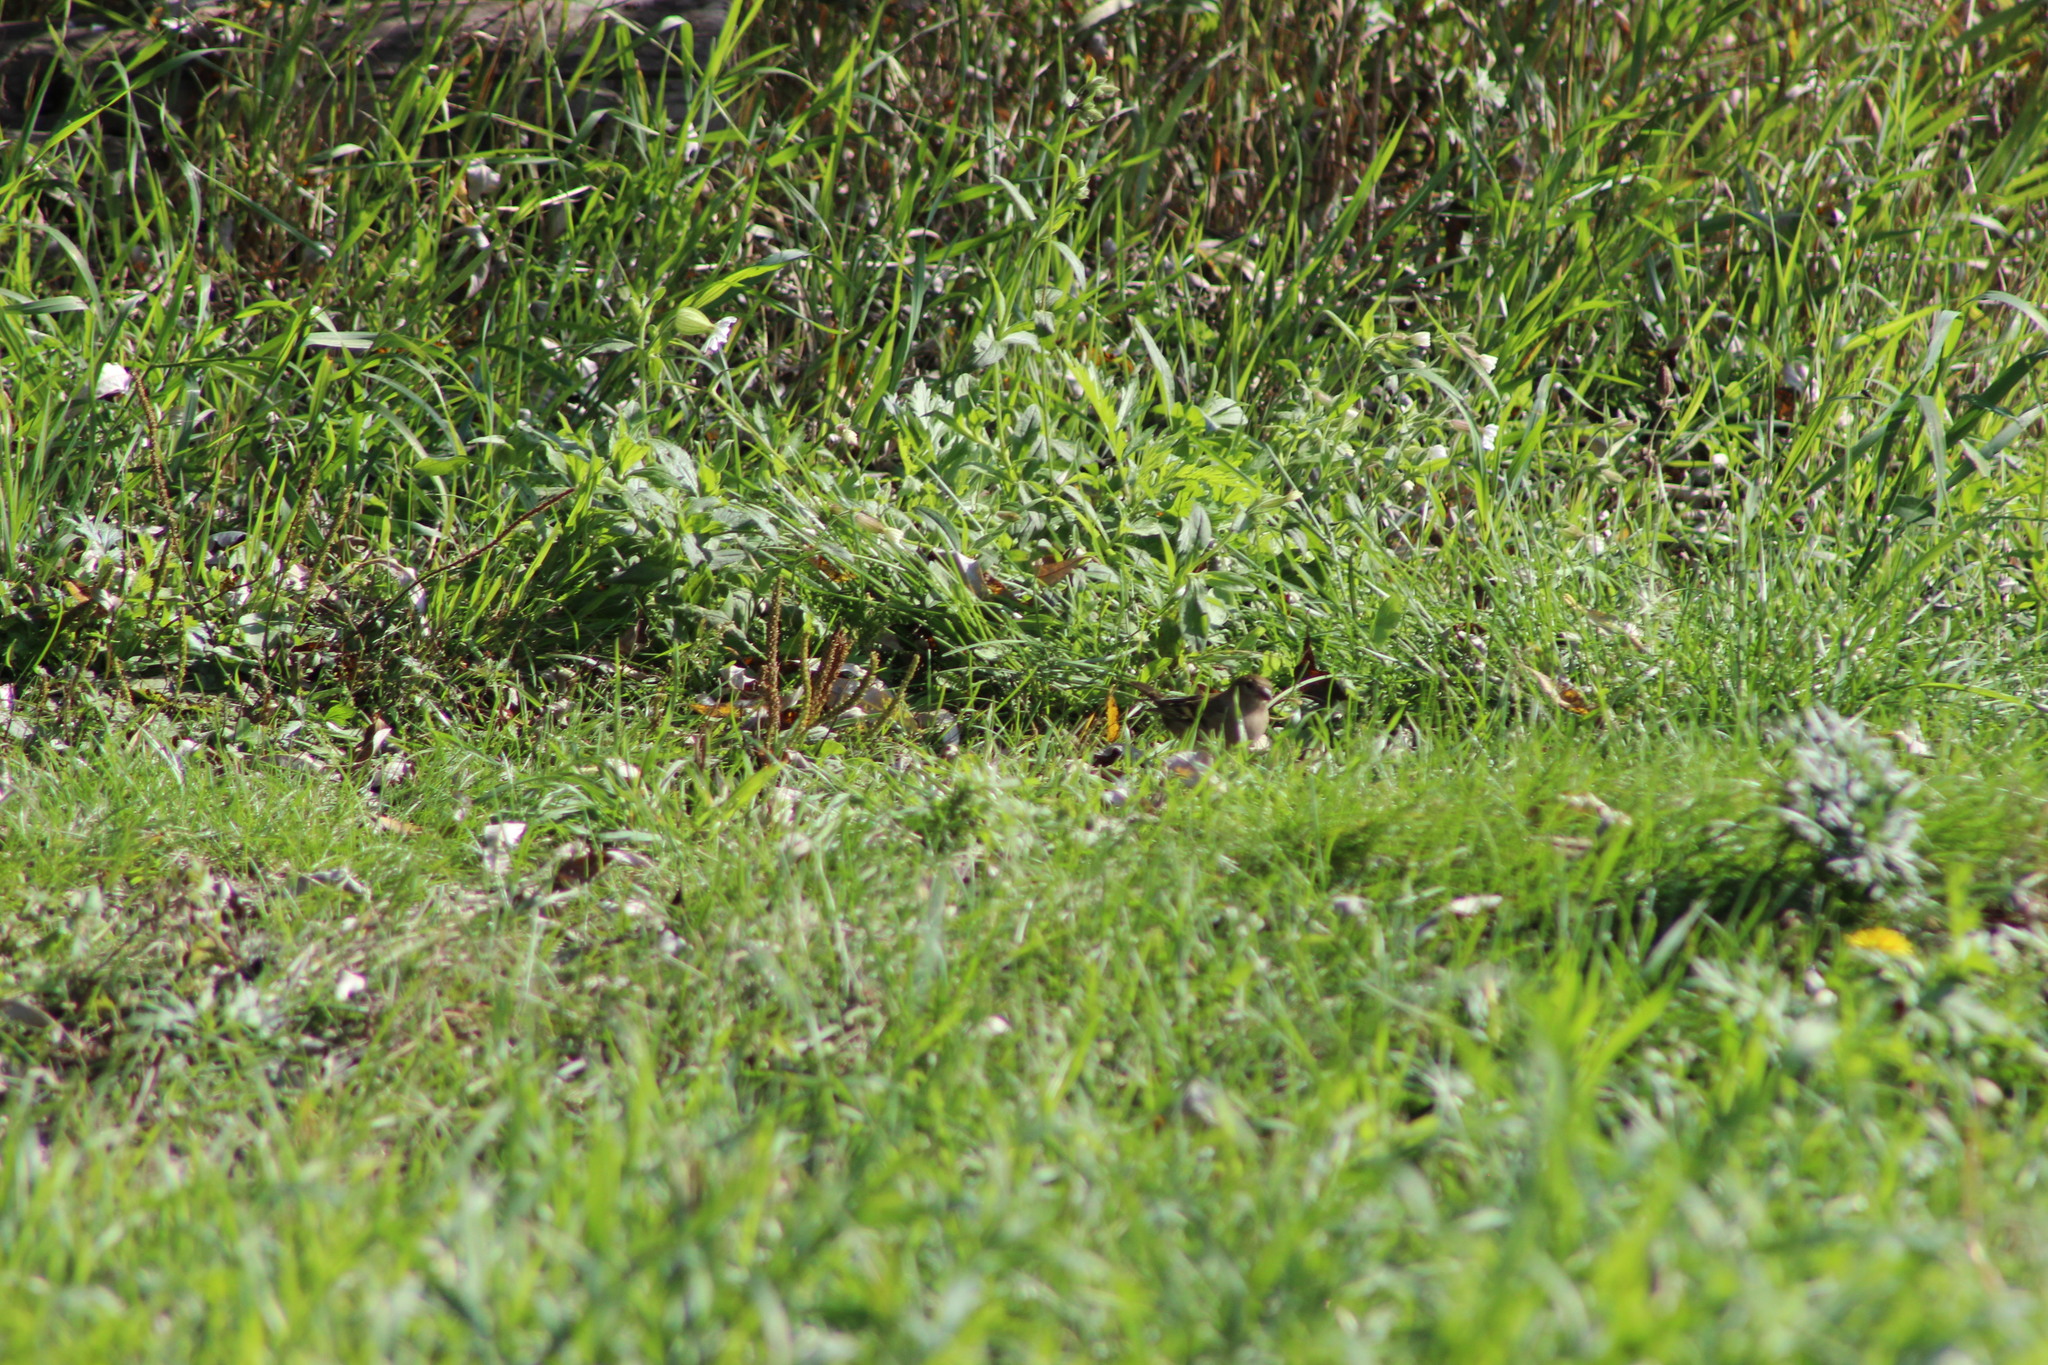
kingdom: Animalia
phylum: Chordata
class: Aves
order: Passeriformes
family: Fringillidae
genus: Fringilla
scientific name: Fringilla coelebs
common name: Common chaffinch
